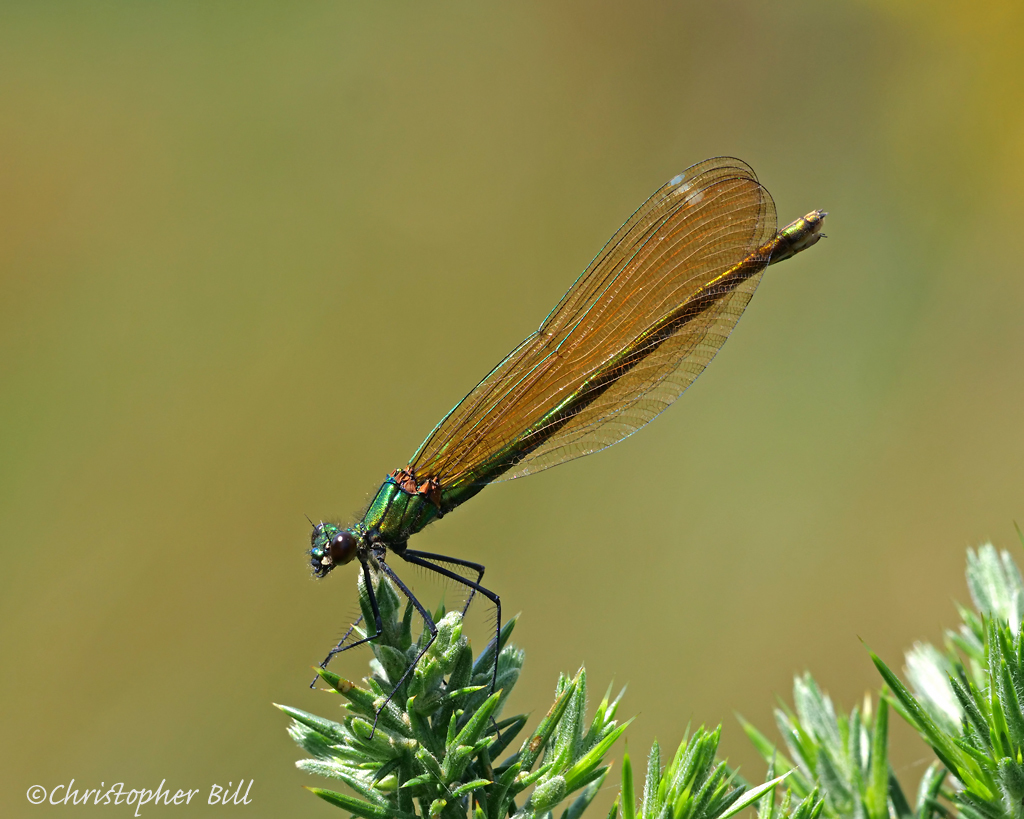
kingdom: Animalia
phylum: Arthropoda
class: Insecta
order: Odonata
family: Calopterygidae
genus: Calopteryx
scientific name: Calopteryx virgo
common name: Beautiful demoiselle
